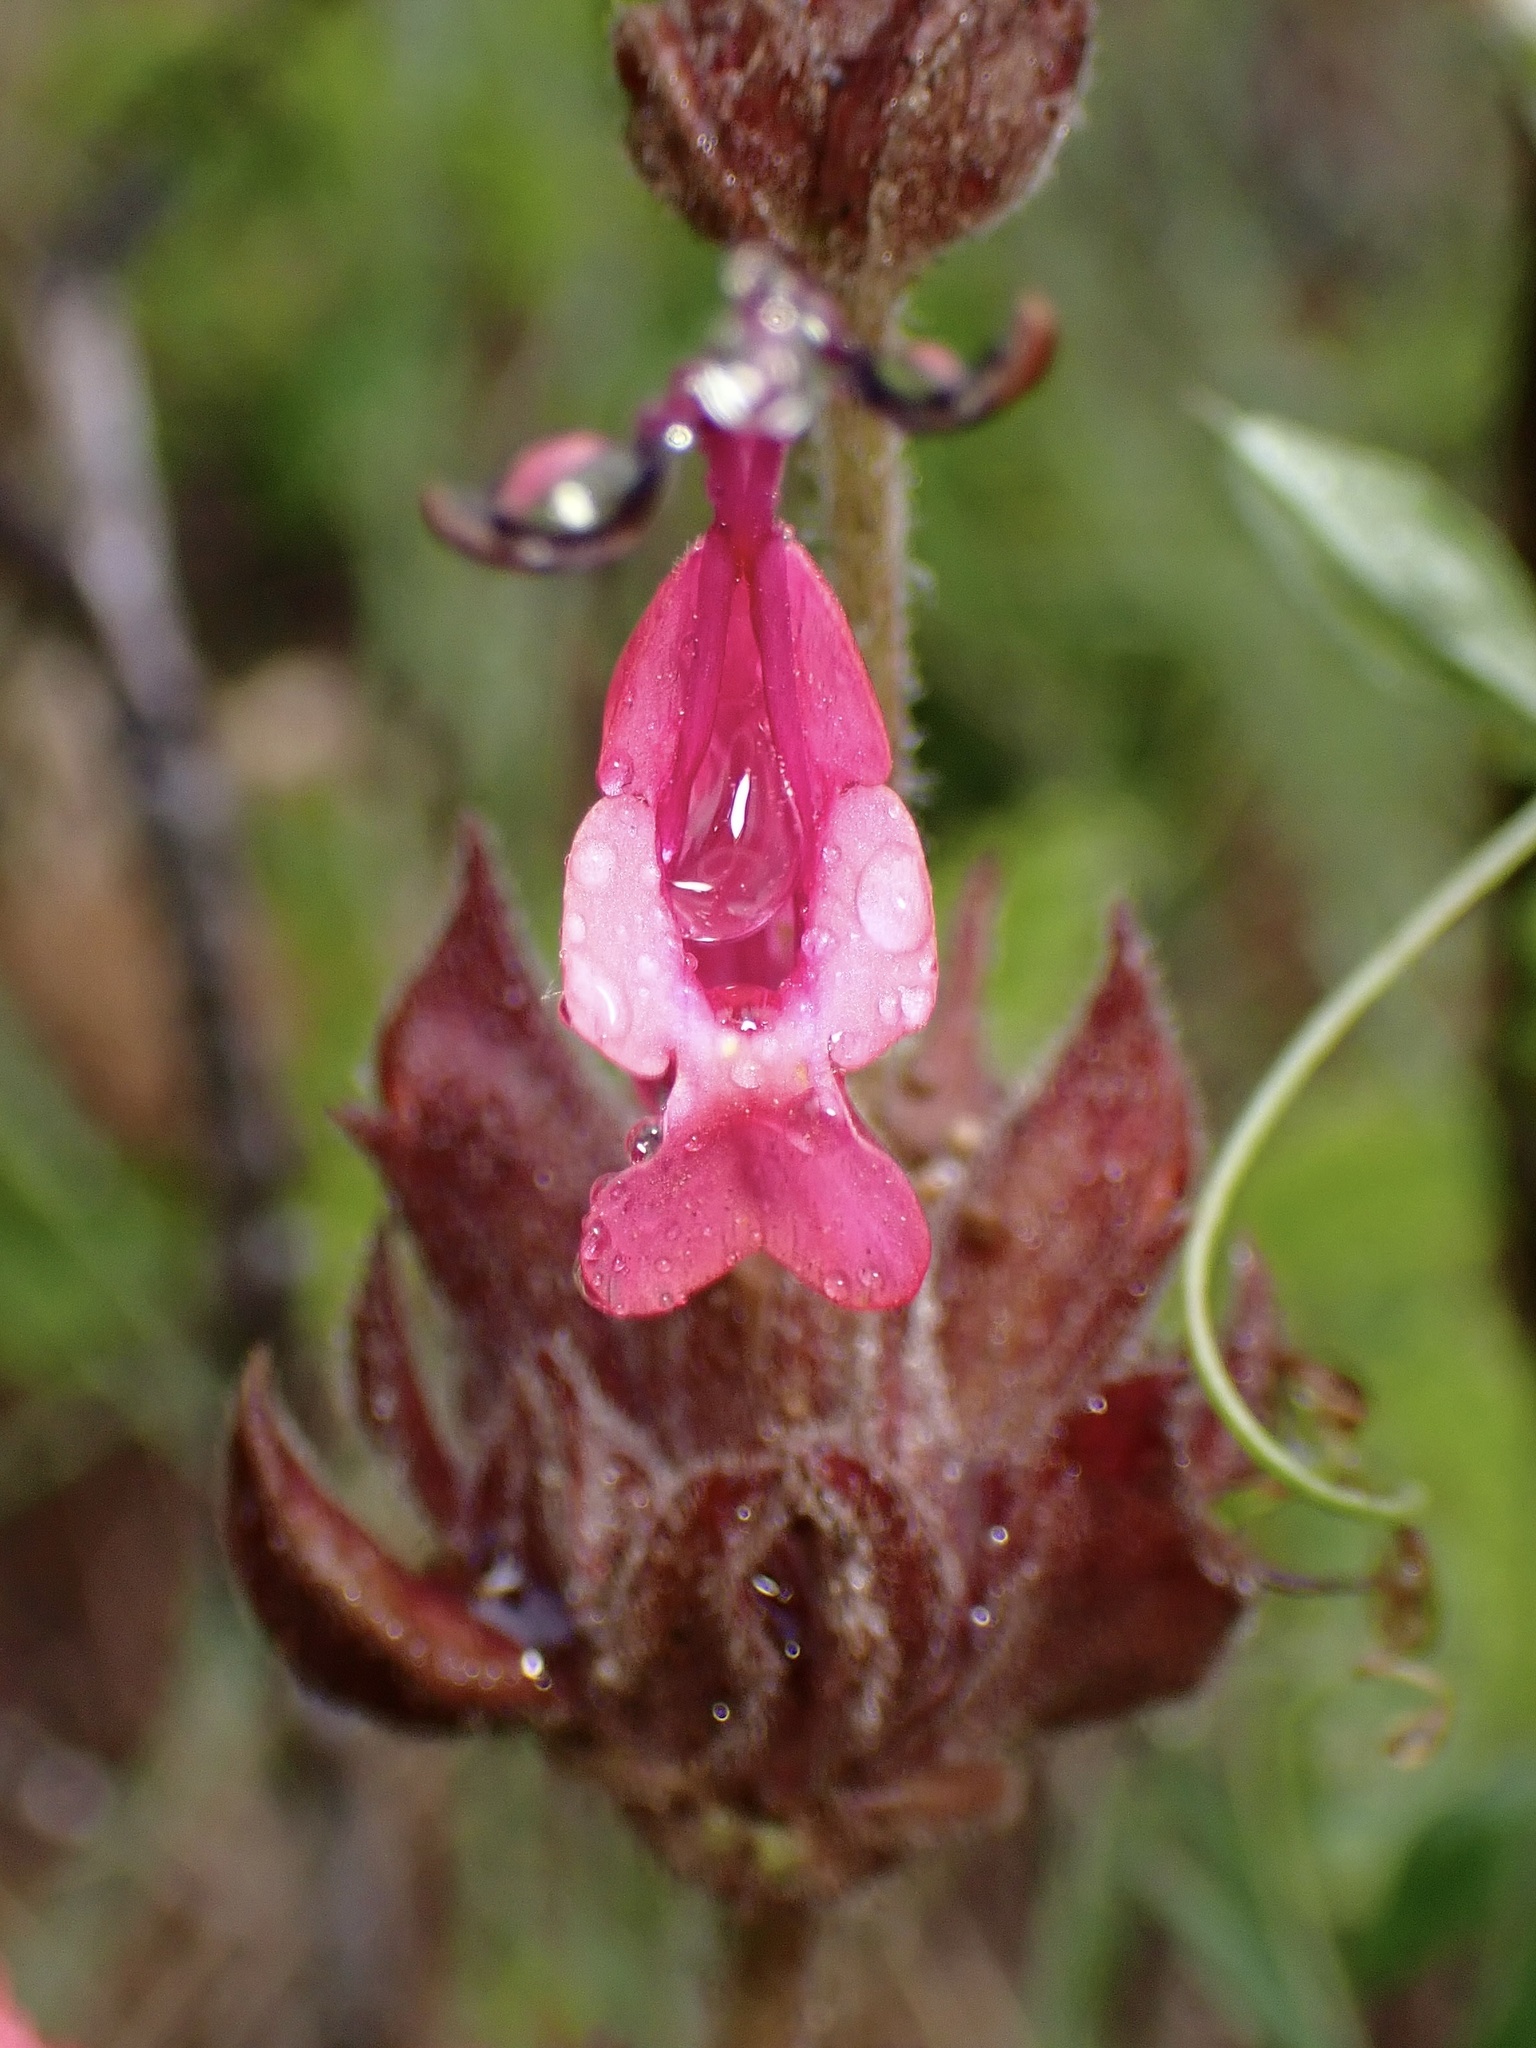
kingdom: Plantae
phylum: Tracheophyta
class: Magnoliopsida
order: Lamiales
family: Lamiaceae
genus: Salvia
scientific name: Salvia spathacea
